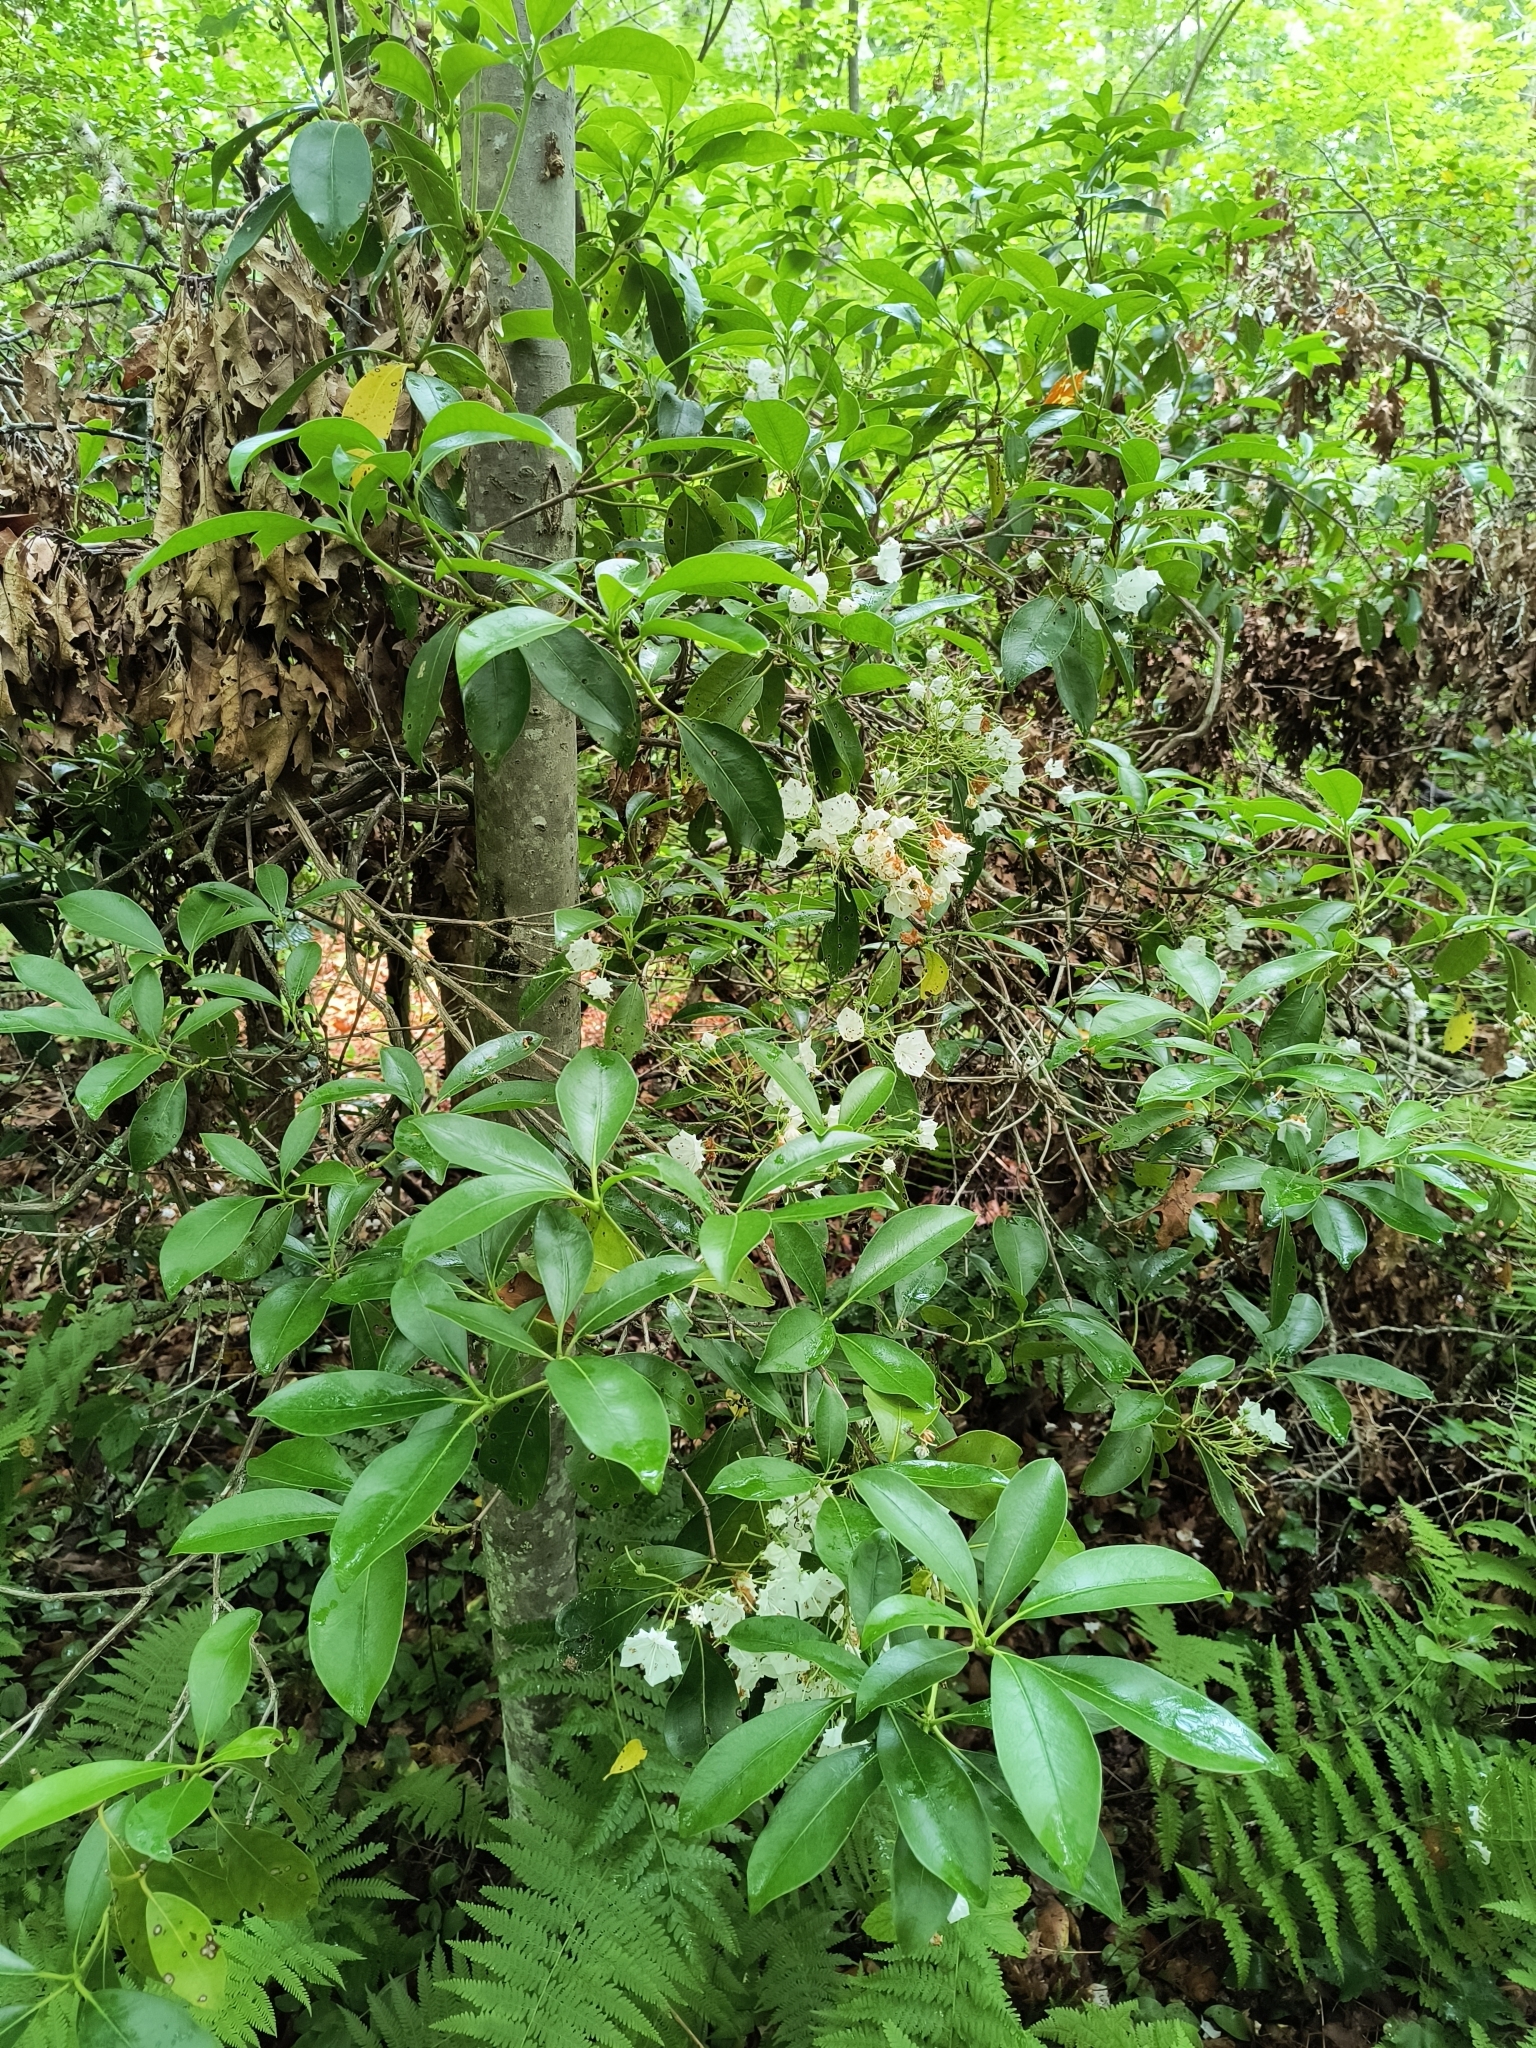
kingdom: Plantae
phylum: Tracheophyta
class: Magnoliopsida
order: Ericales
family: Ericaceae
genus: Kalmia
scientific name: Kalmia latifolia
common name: Mountain-laurel
